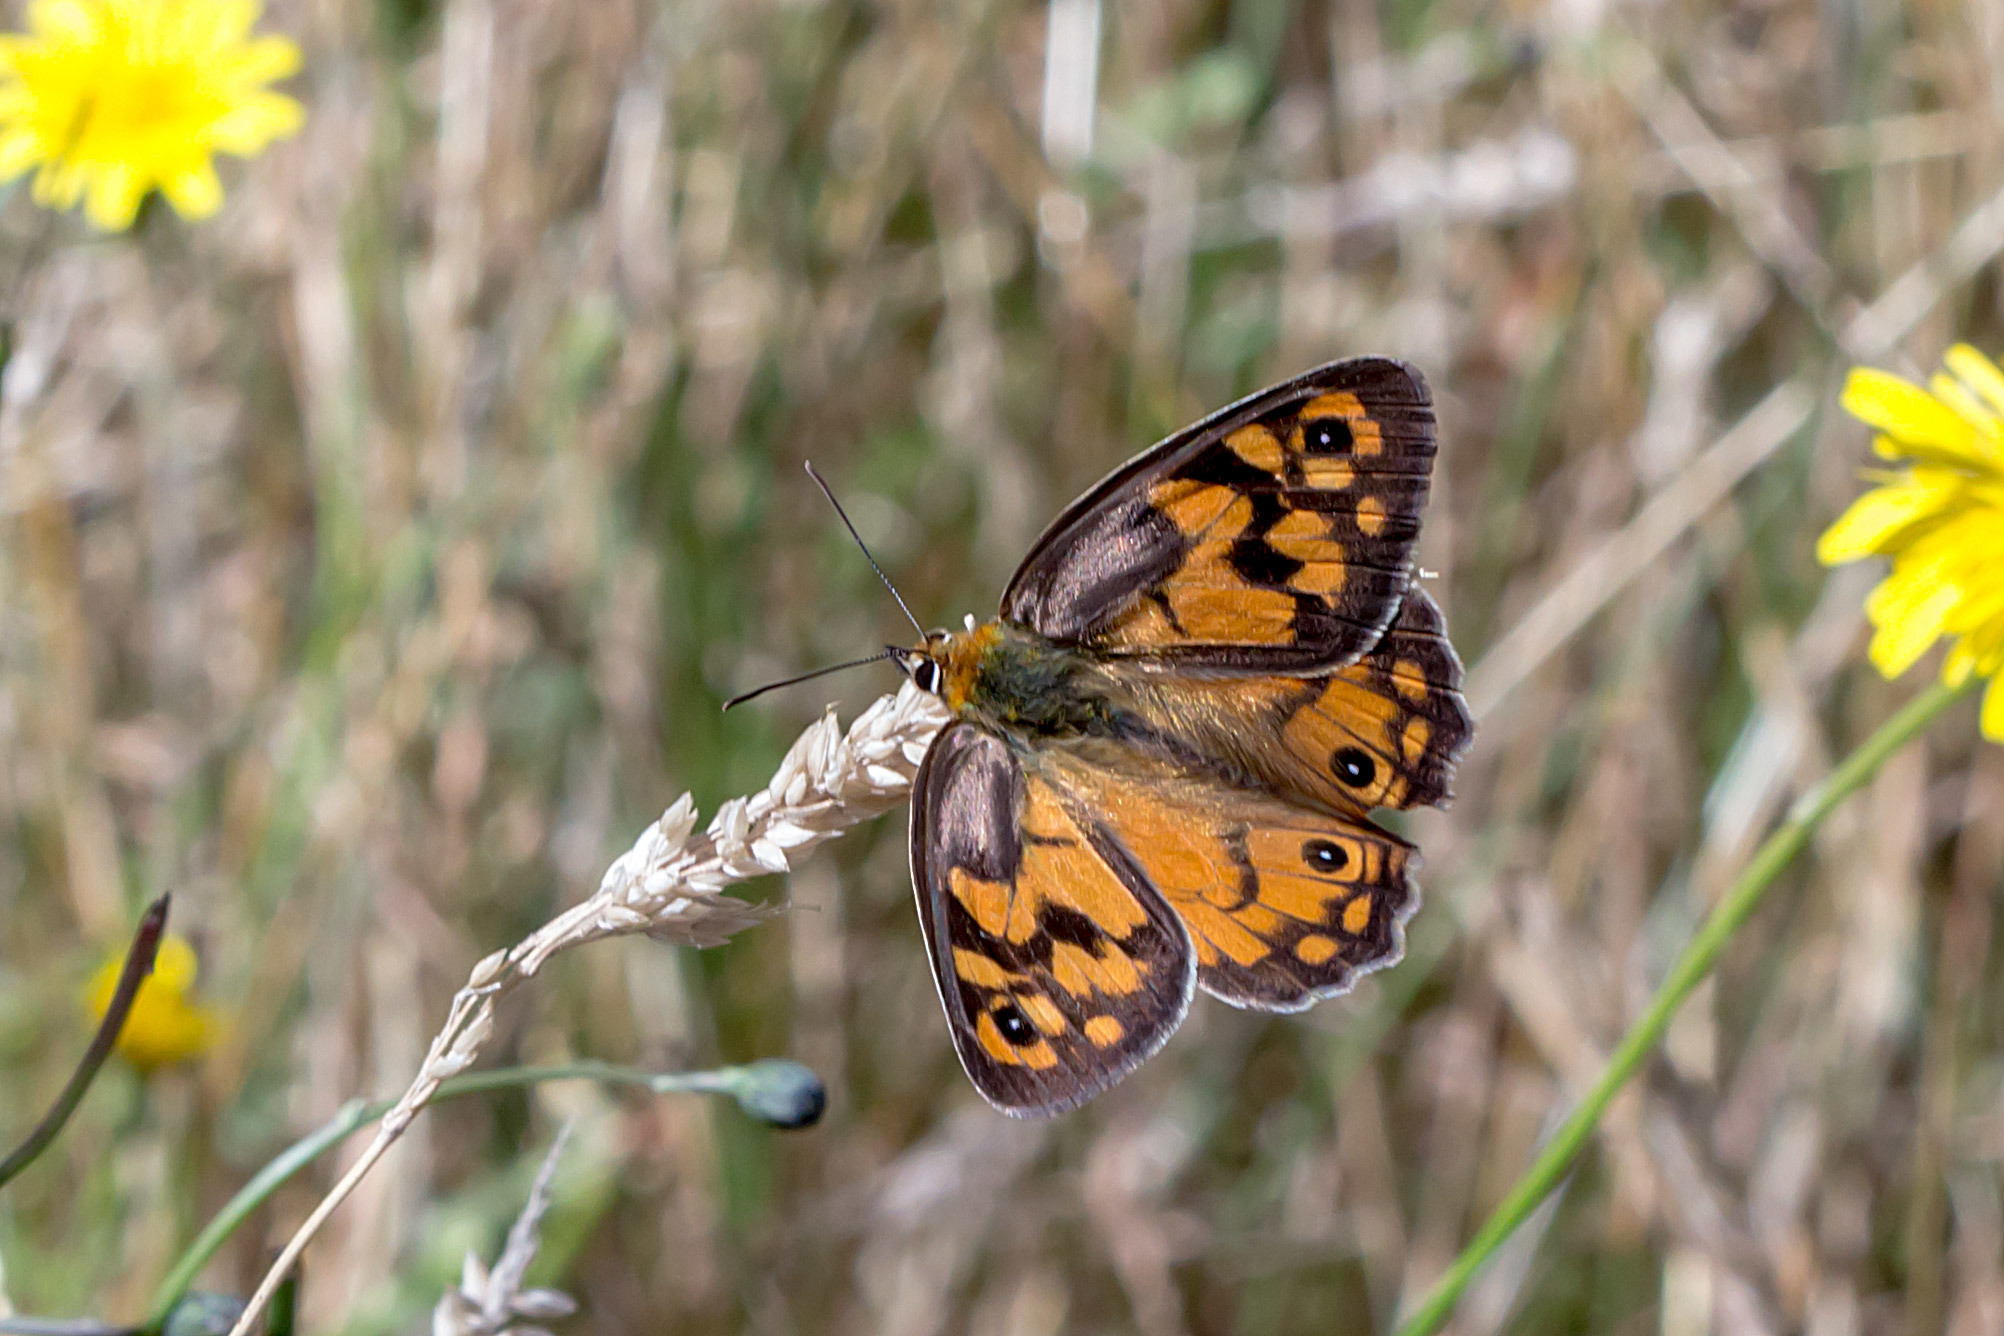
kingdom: Animalia
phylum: Arthropoda
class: Insecta
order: Lepidoptera
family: Nymphalidae
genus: Heteronympha
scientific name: Heteronympha penelope
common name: Shouldered brown
